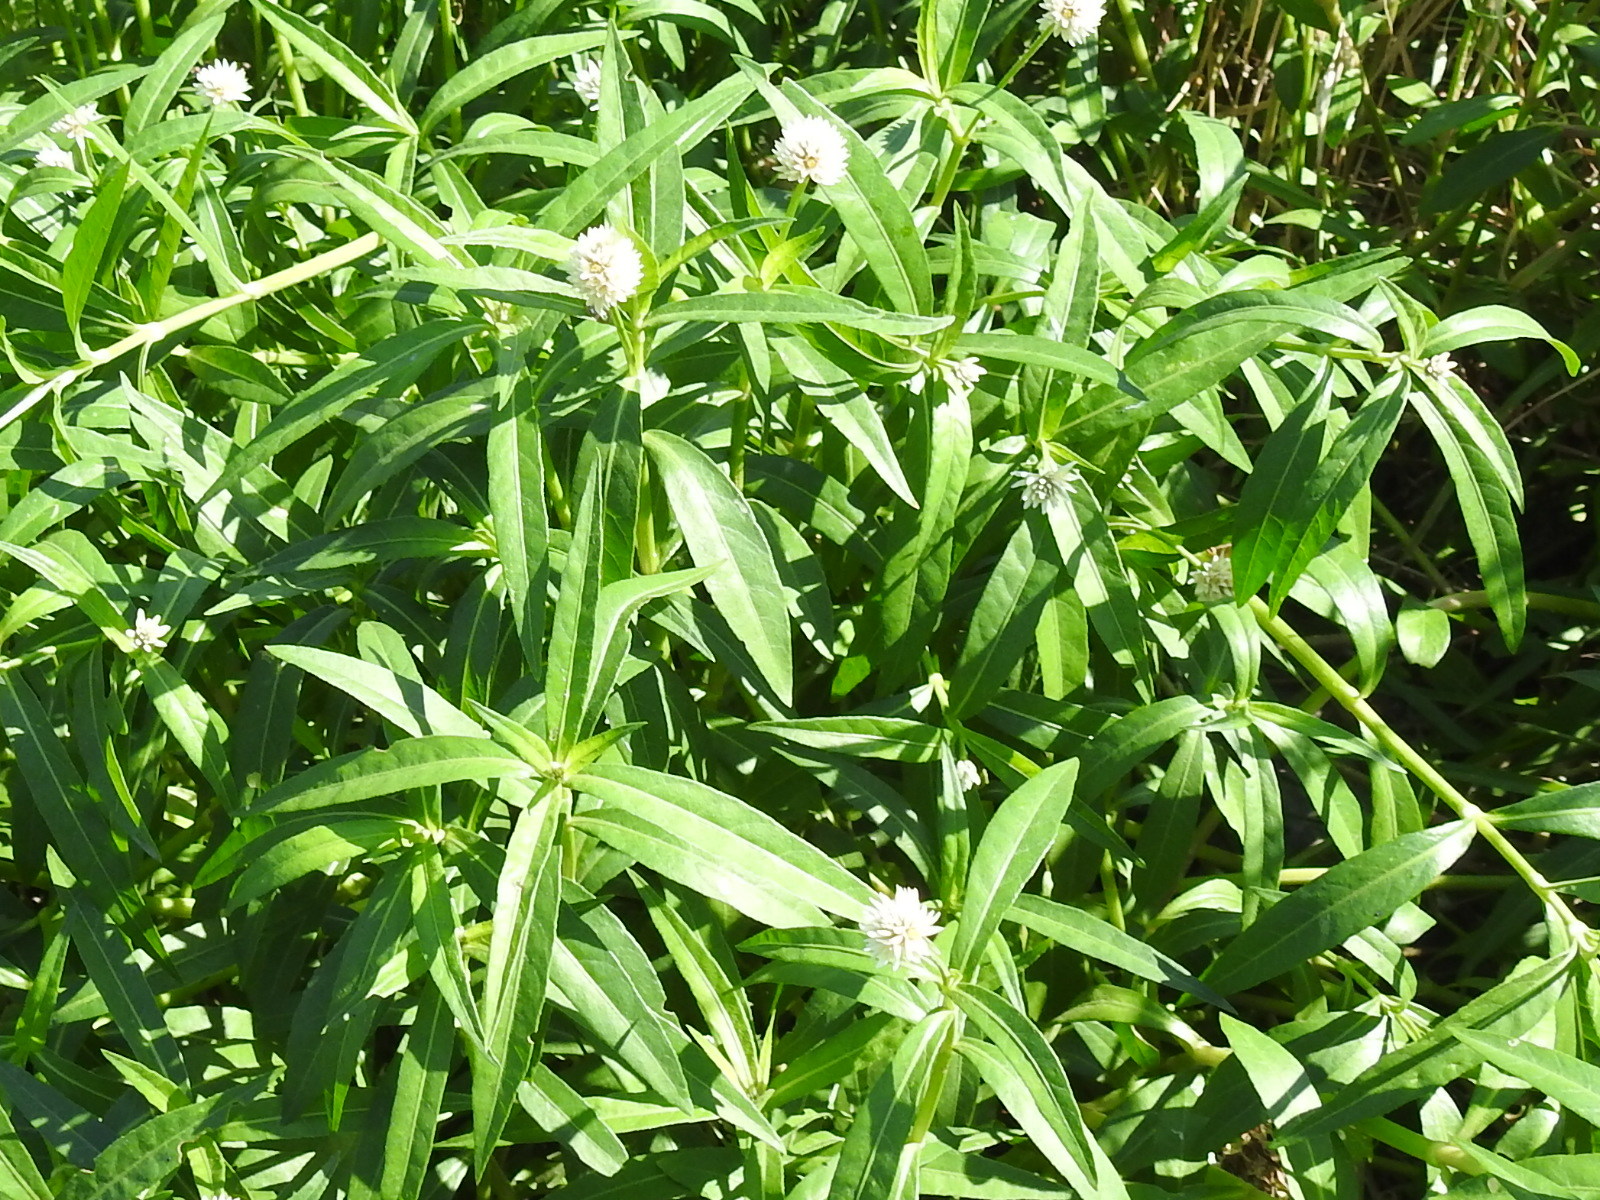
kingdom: Plantae
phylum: Tracheophyta
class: Magnoliopsida
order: Caryophyllales
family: Amaranthaceae
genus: Alternanthera
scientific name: Alternanthera philoxeroides
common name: Alligatorweed
